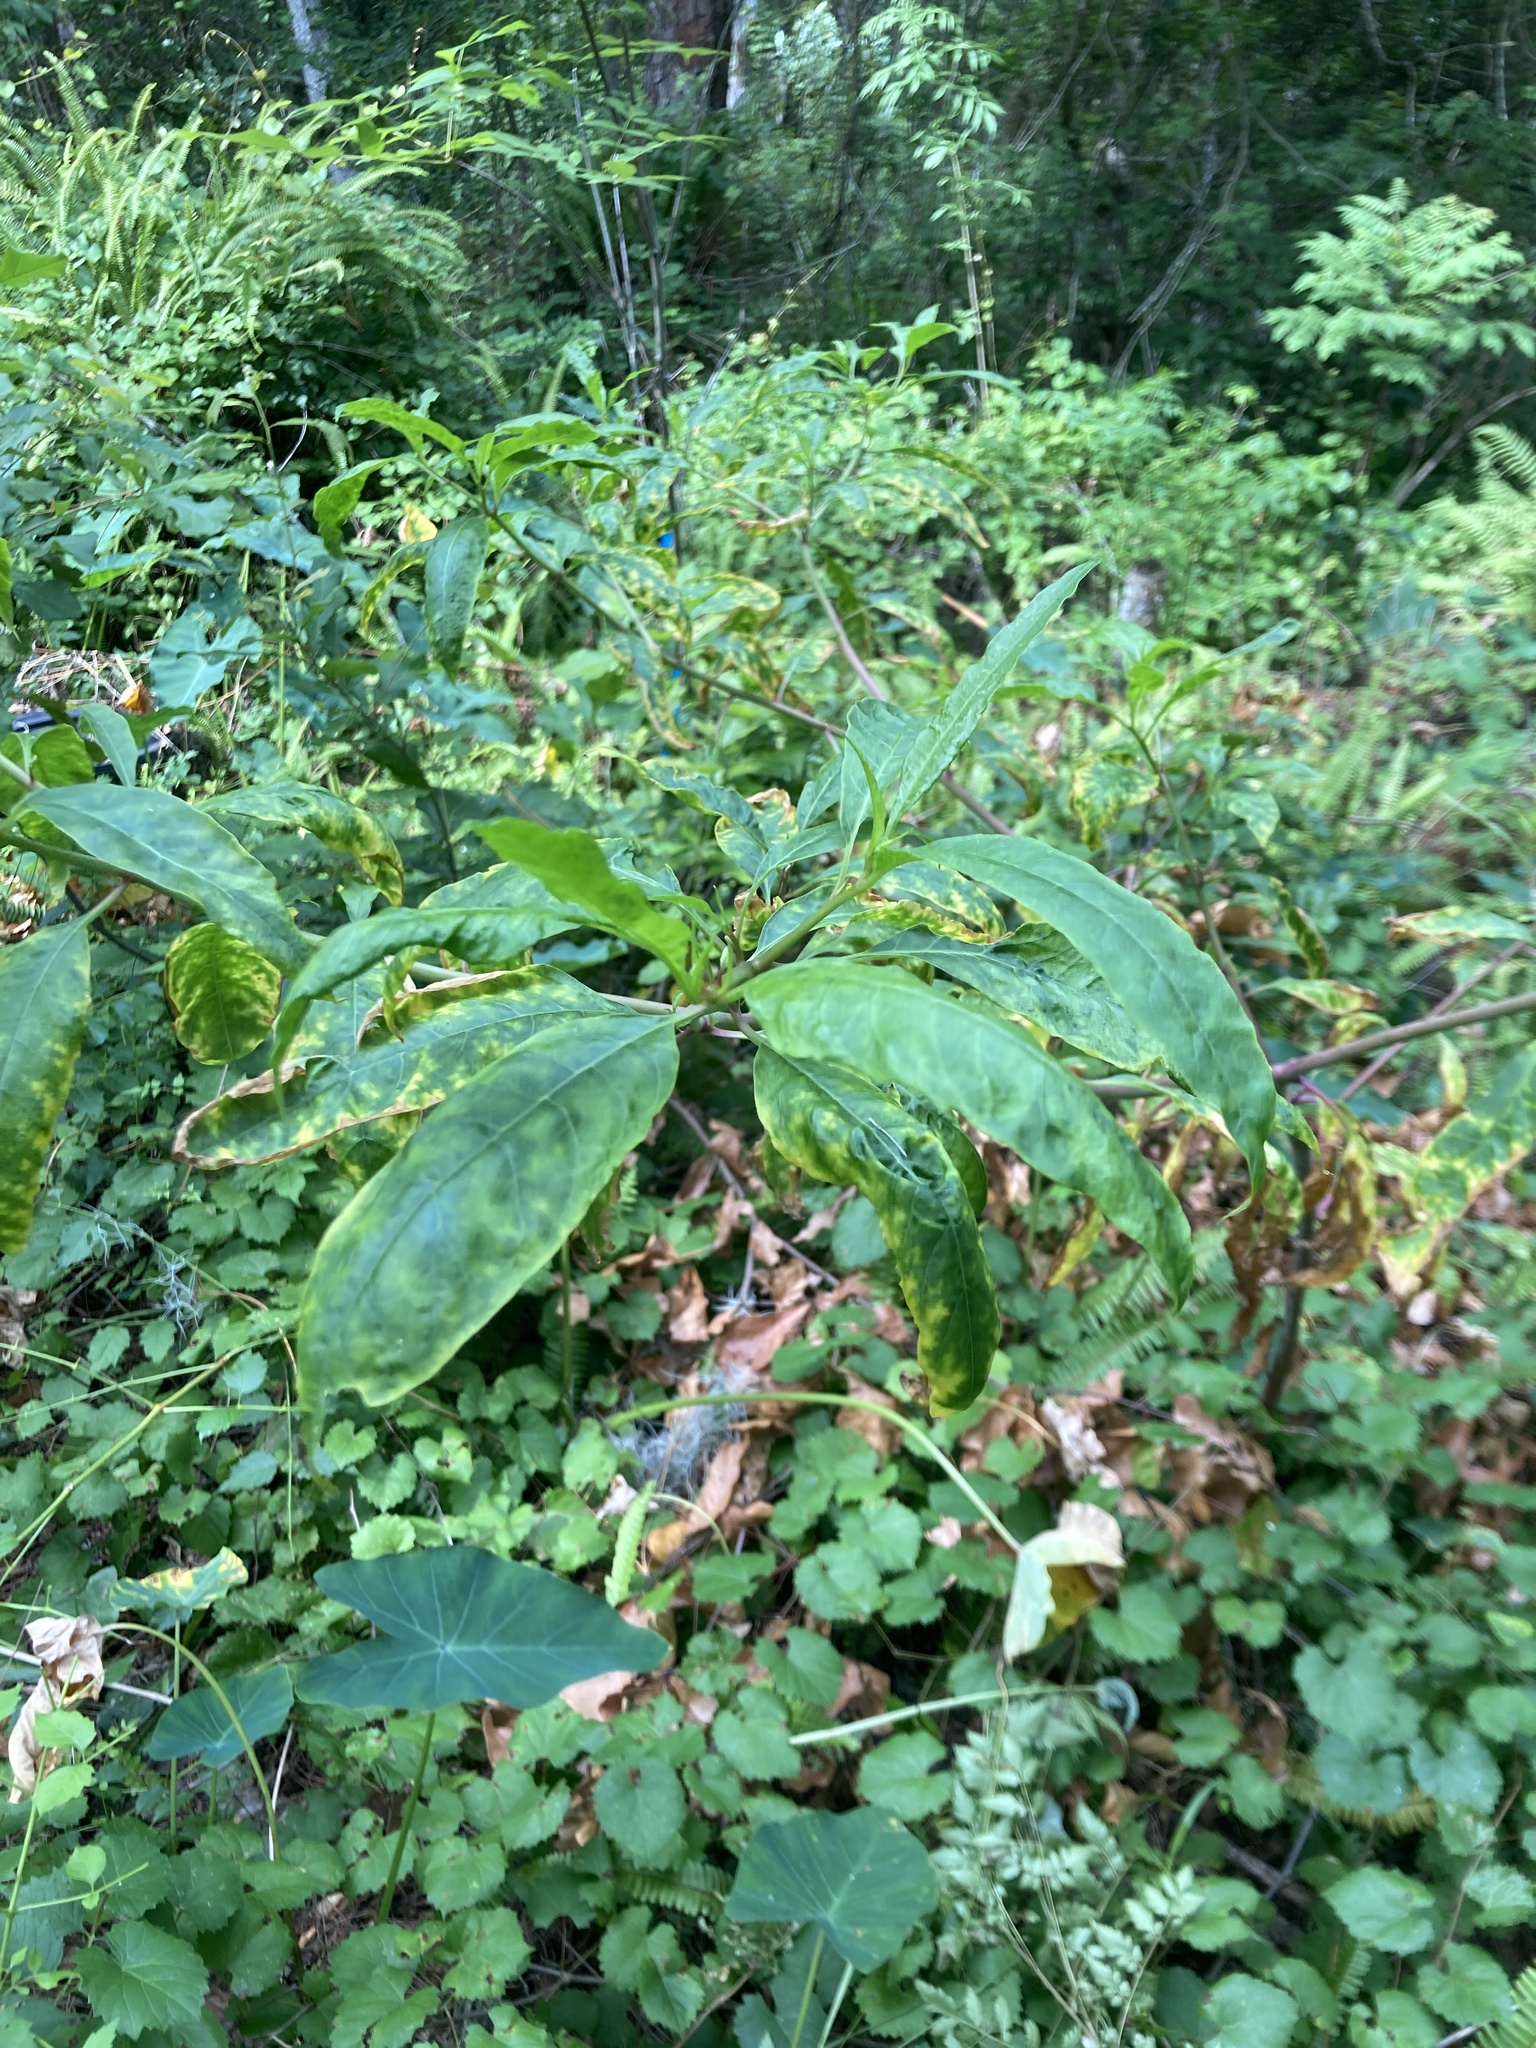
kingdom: Plantae
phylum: Tracheophyta
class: Magnoliopsida
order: Caryophyllales
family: Phytolaccaceae
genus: Phytolacca
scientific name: Phytolacca americana
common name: American pokeweed
